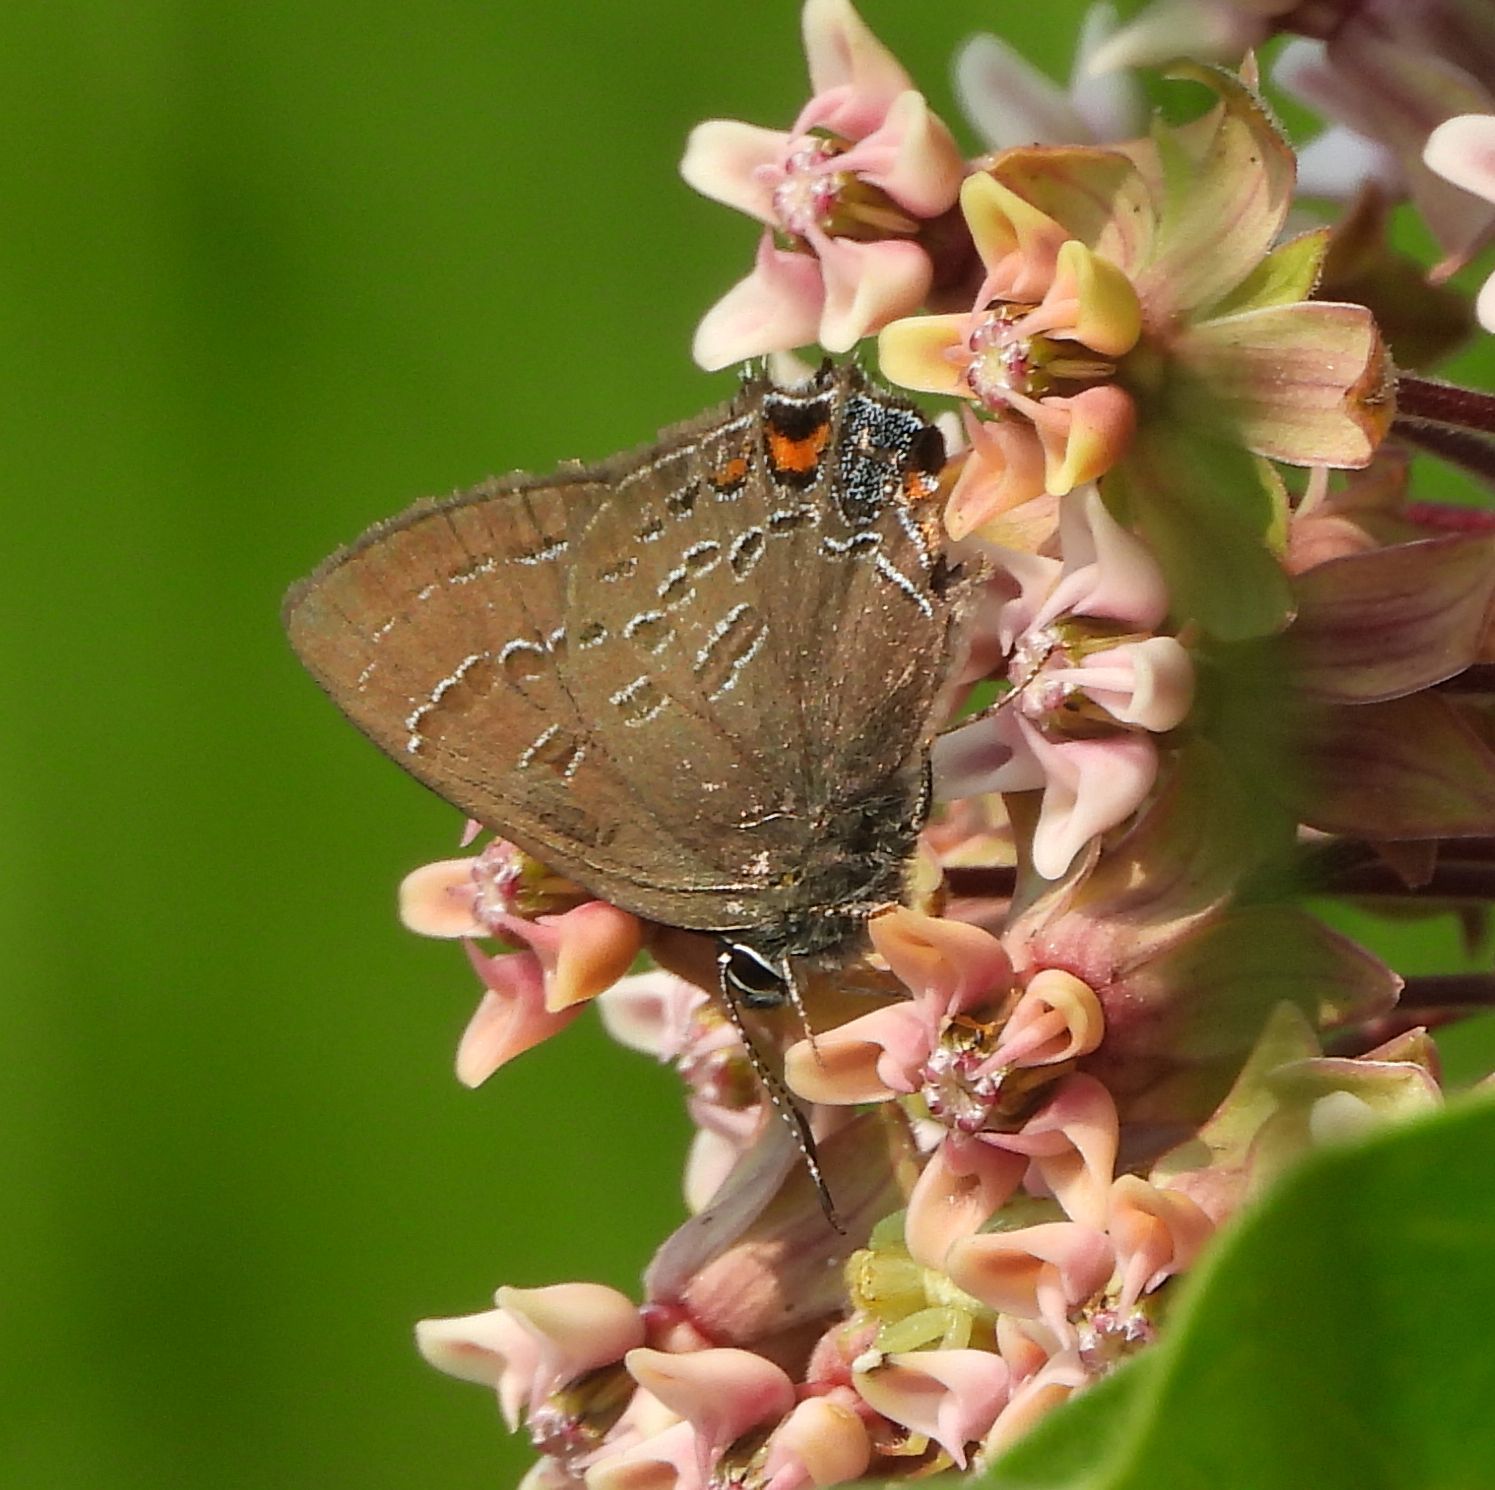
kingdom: Animalia
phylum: Arthropoda
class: Insecta
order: Lepidoptera
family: Lycaenidae
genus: Satyrium
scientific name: Satyrium calanus
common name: Banded hairstreak
